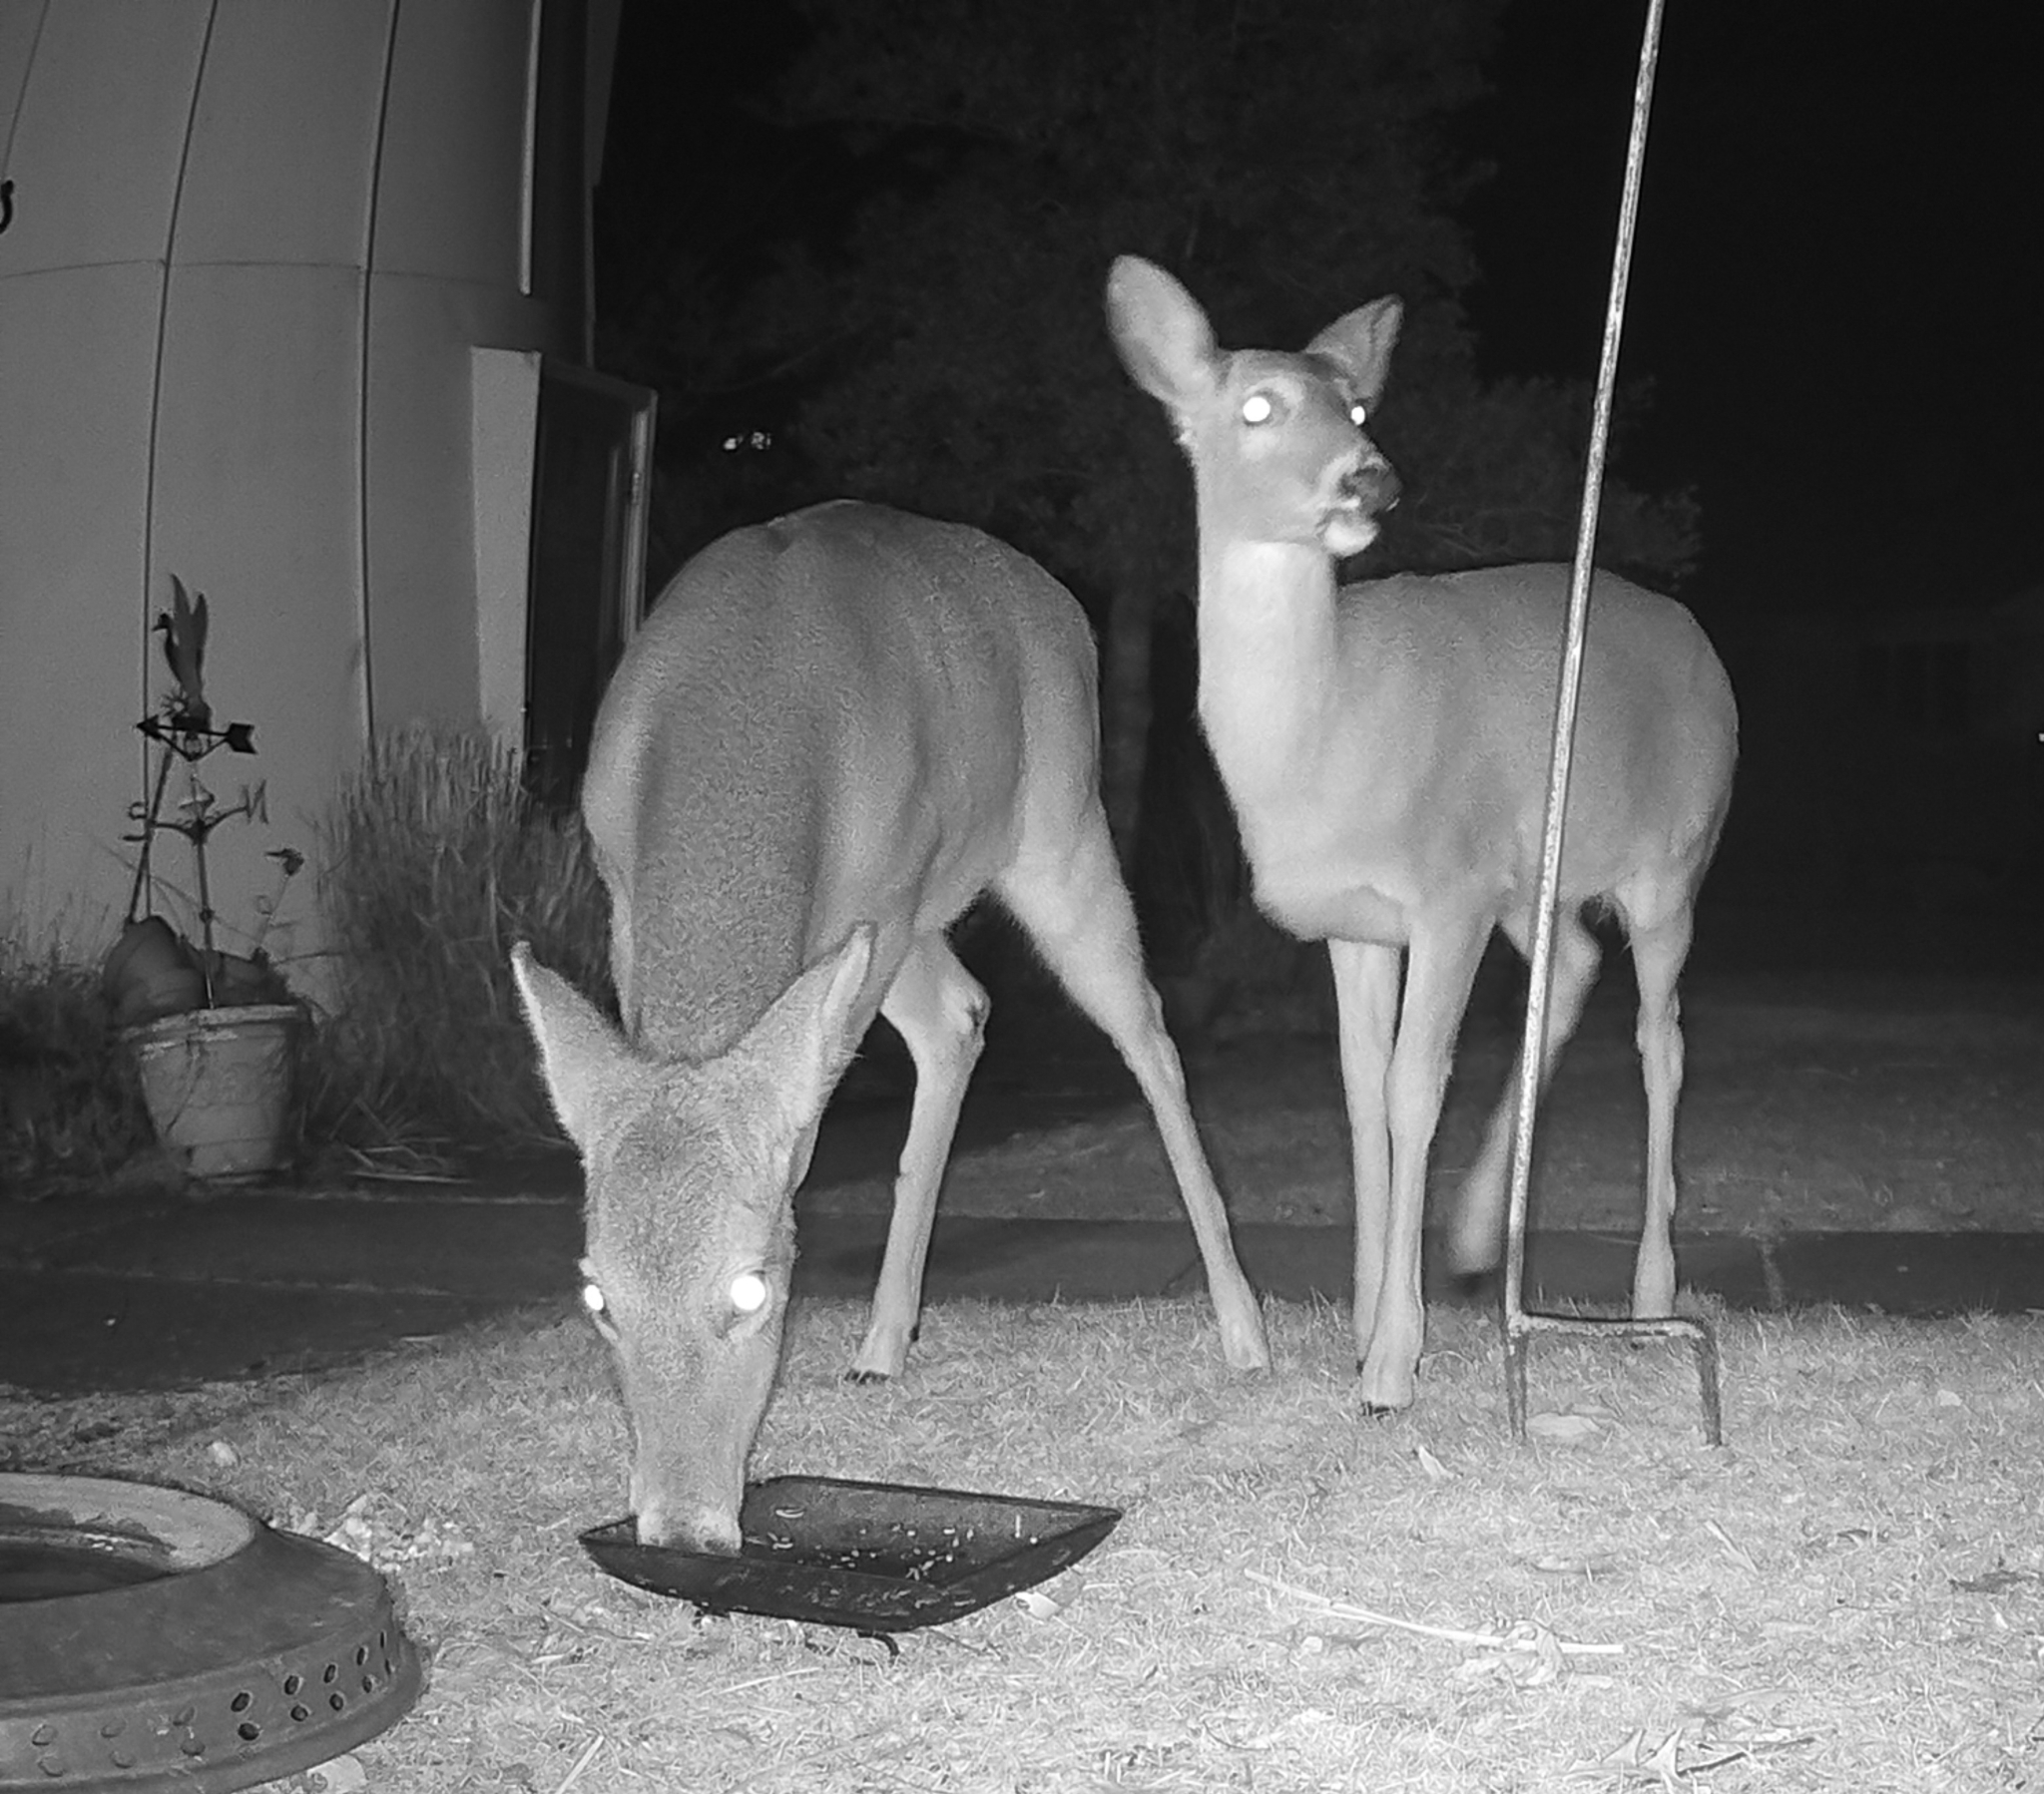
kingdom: Animalia
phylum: Chordata
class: Mammalia
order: Artiodactyla
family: Cervidae
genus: Odocoileus
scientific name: Odocoileus virginianus
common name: White-tailed deer
